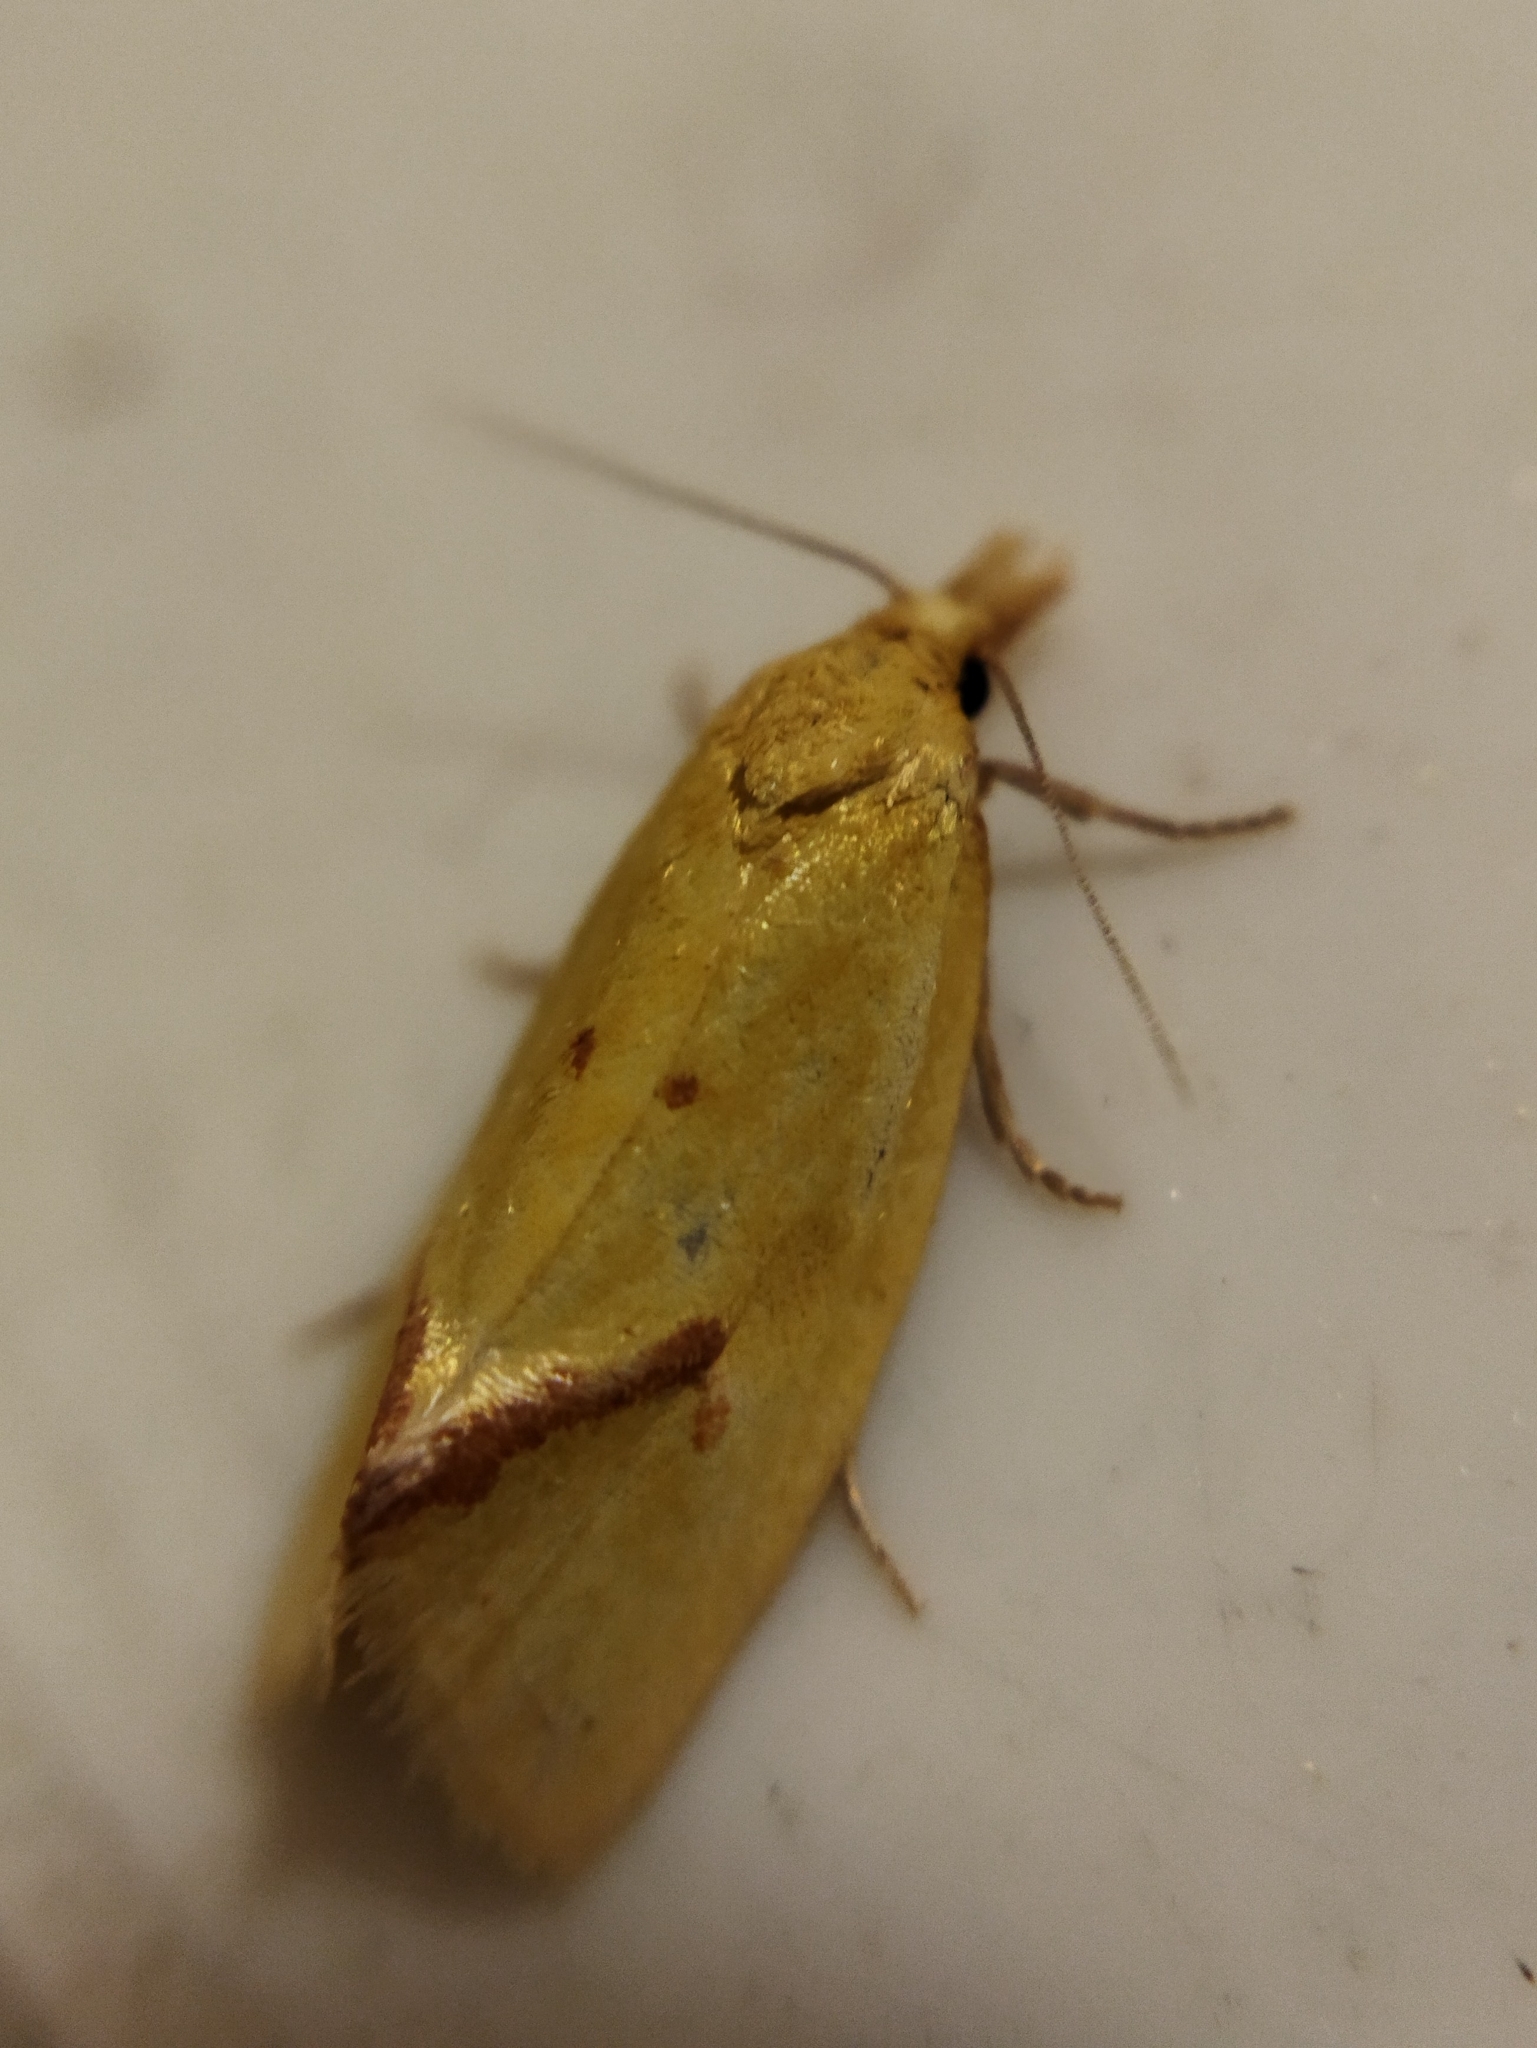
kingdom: Animalia
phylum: Arthropoda
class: Insecta
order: Lepidoptera
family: Tortricidae
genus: Agapeta
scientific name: Agapeta hamana
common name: Common yellow conch
